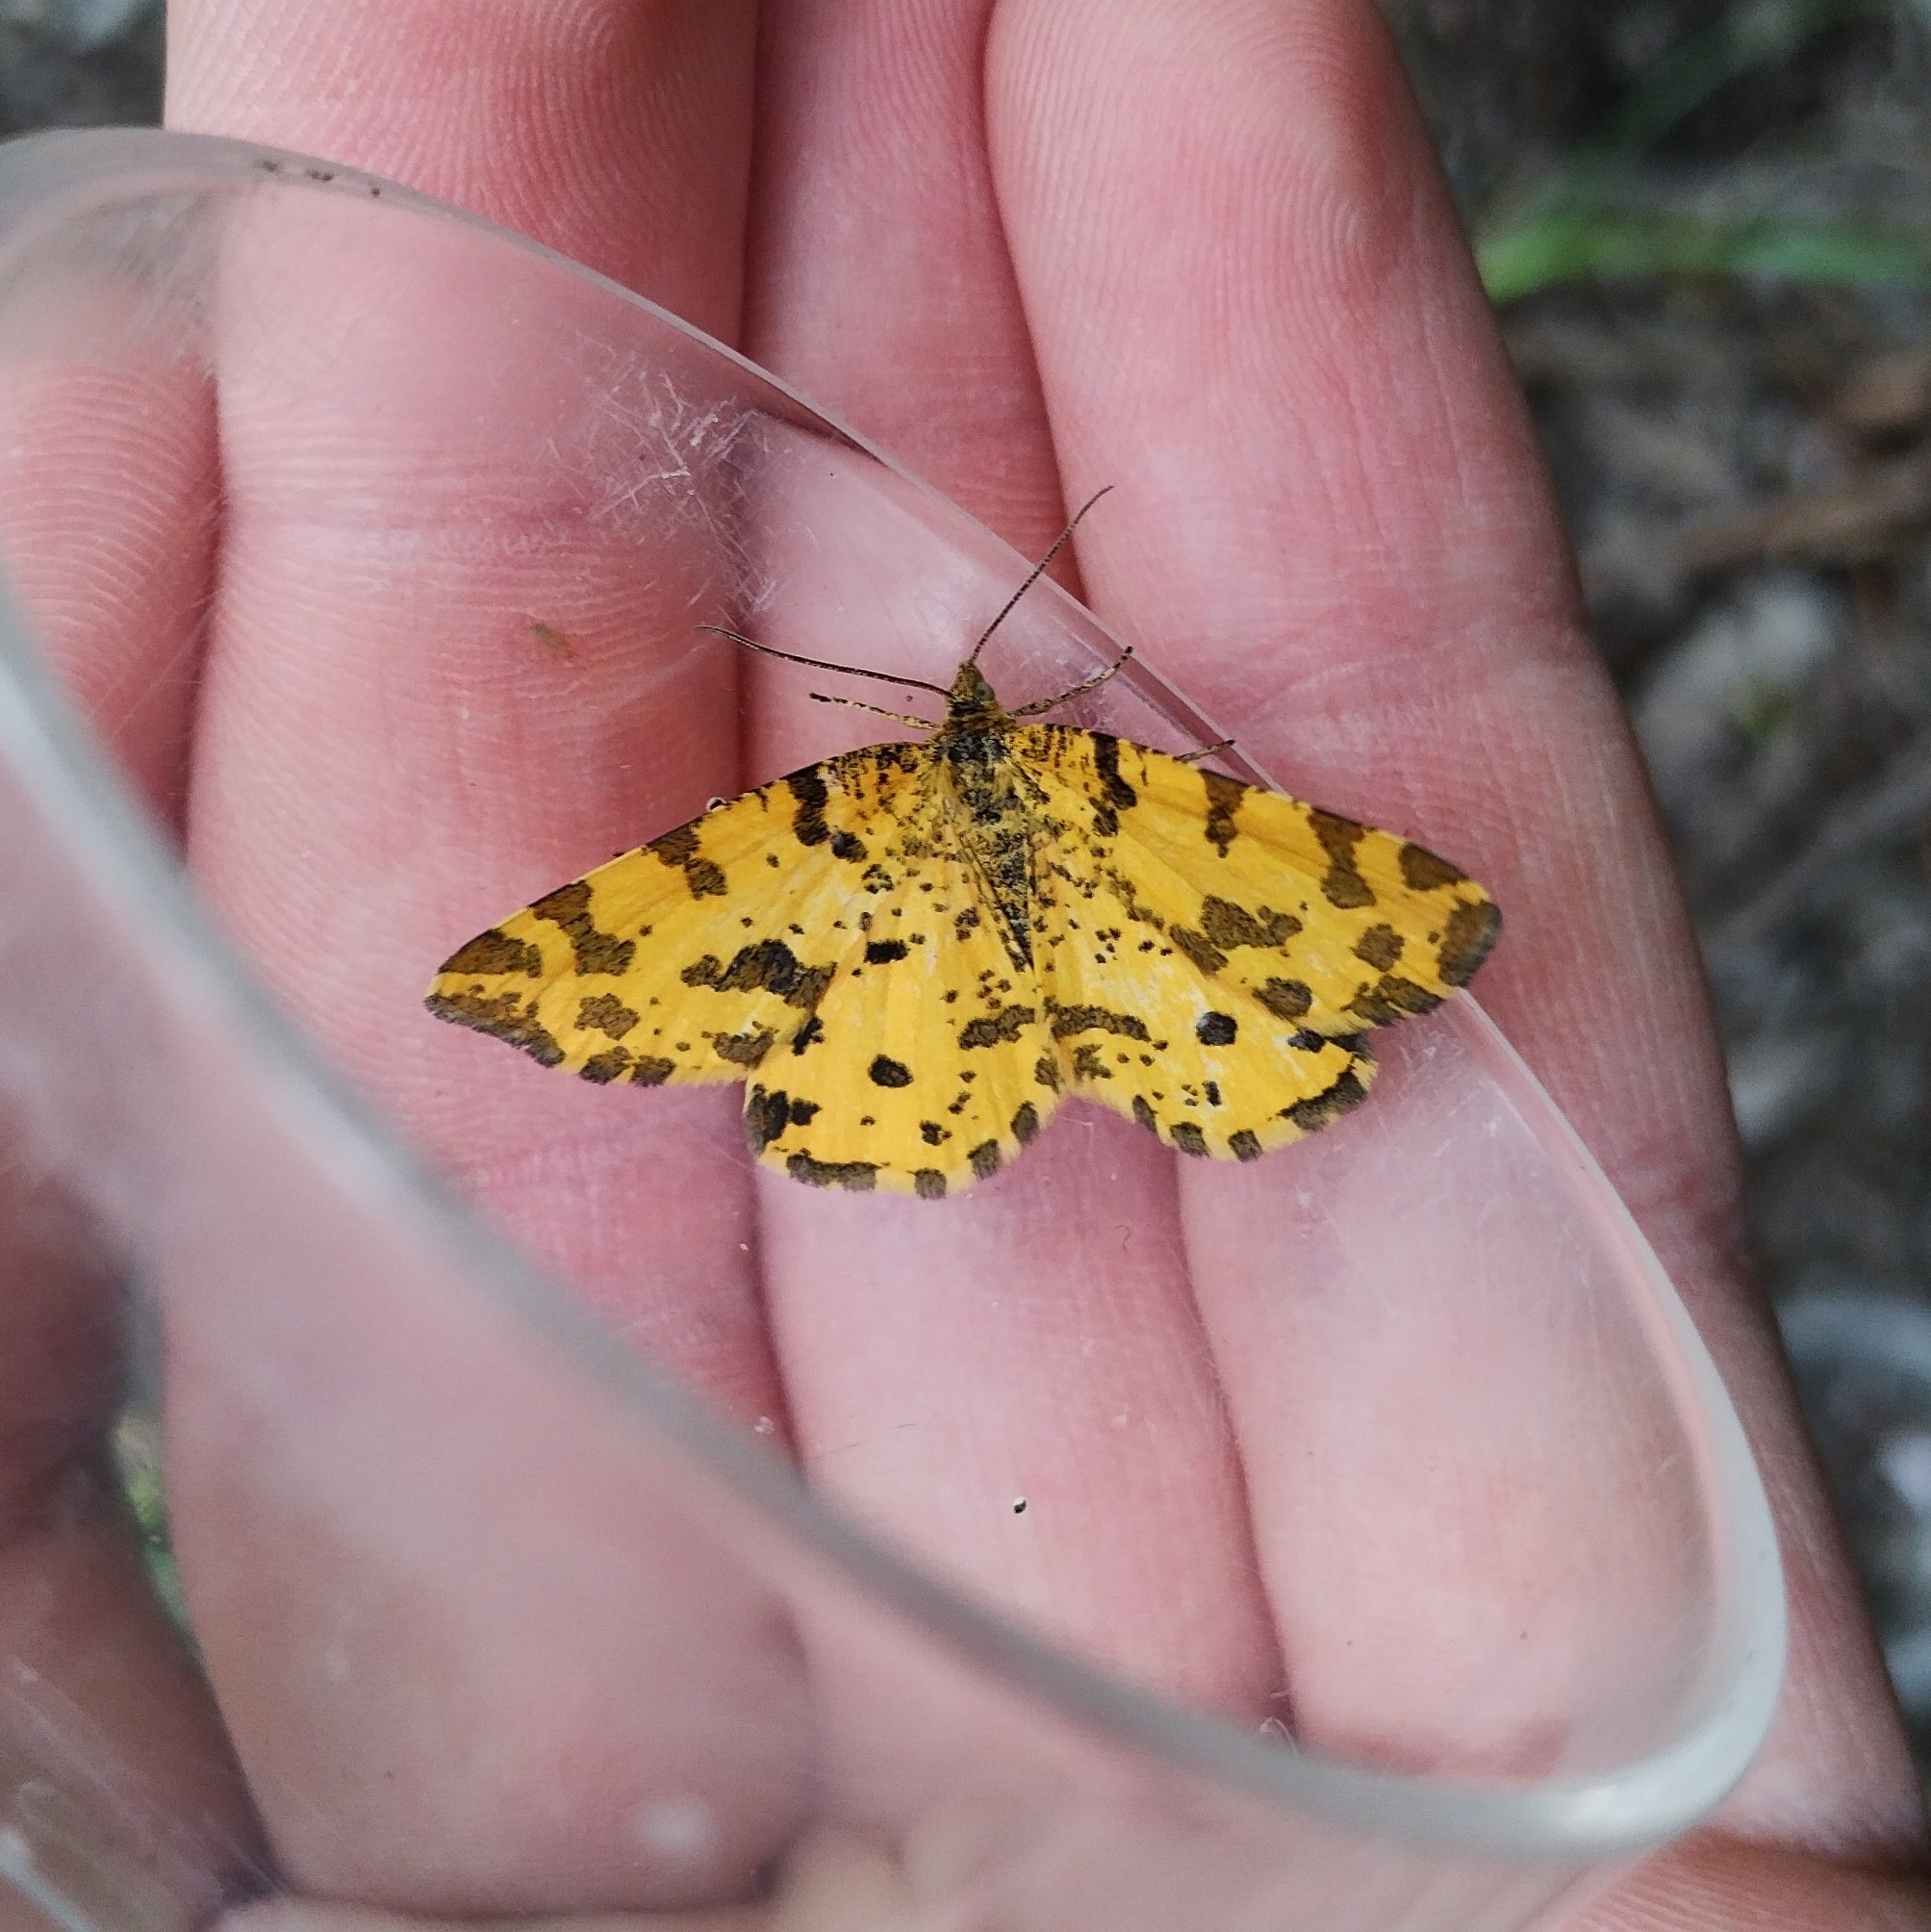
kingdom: Animalia
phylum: Arthropoda
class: Insecta
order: Lepidoptera
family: Geometridae
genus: Pseudopanthera
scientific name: Pseudopanthera macularia
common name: Speckled yellow
